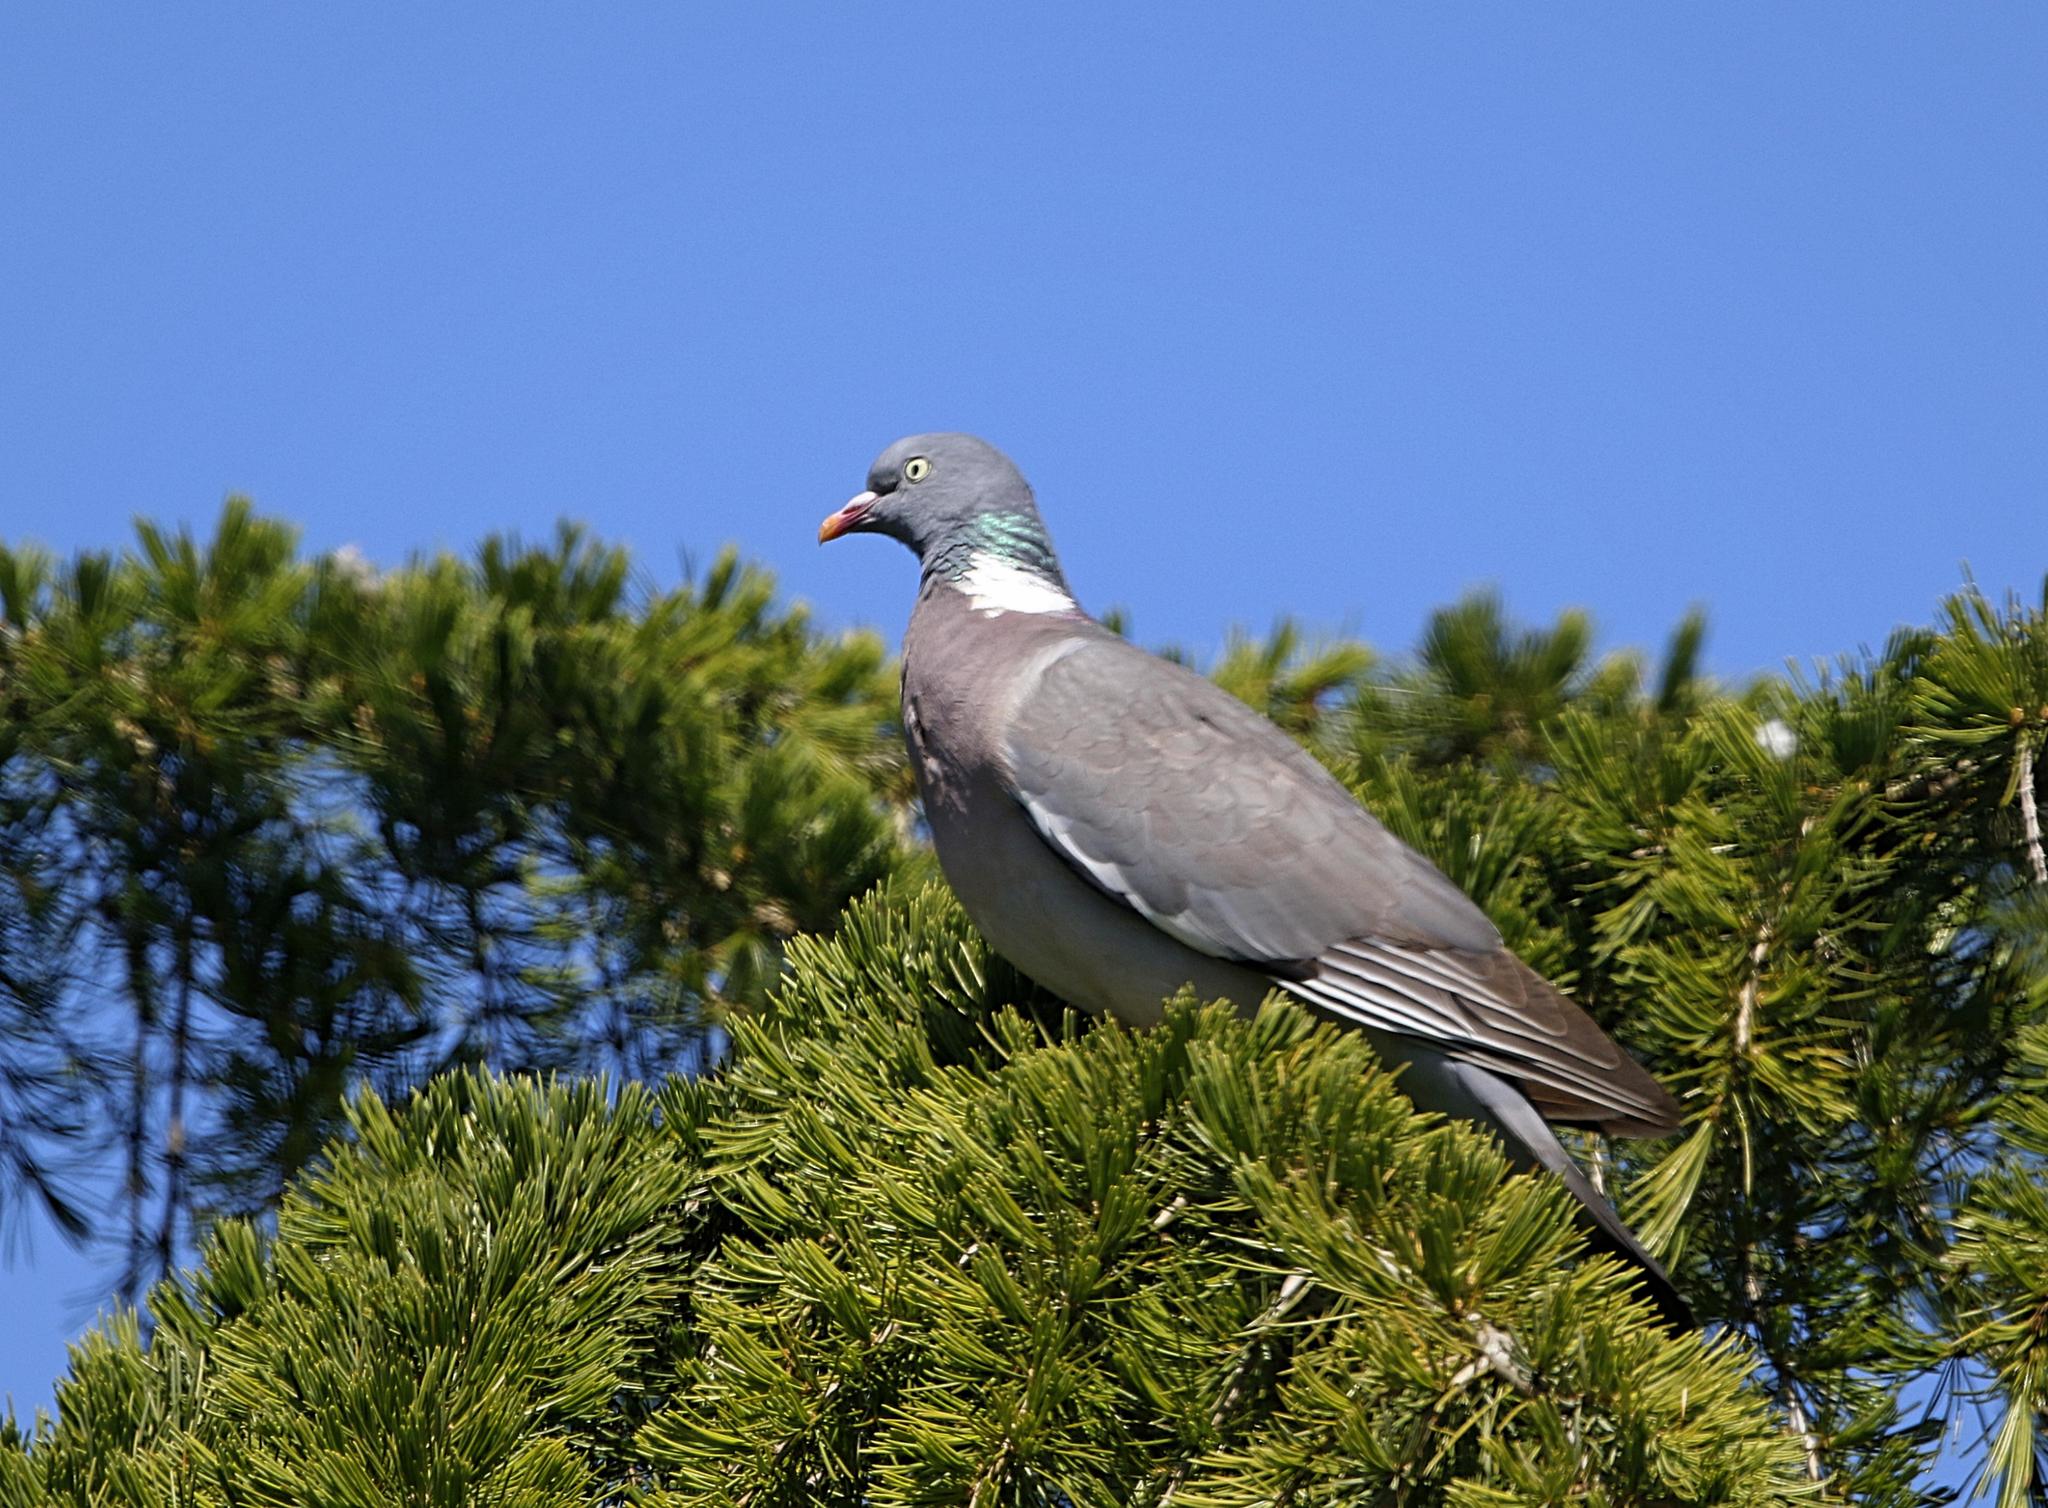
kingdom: Animalia
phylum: Chordata
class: Aves
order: Columbiformes
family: Columbidae
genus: Columba
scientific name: Columba palumbus
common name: Common wood pigeon
